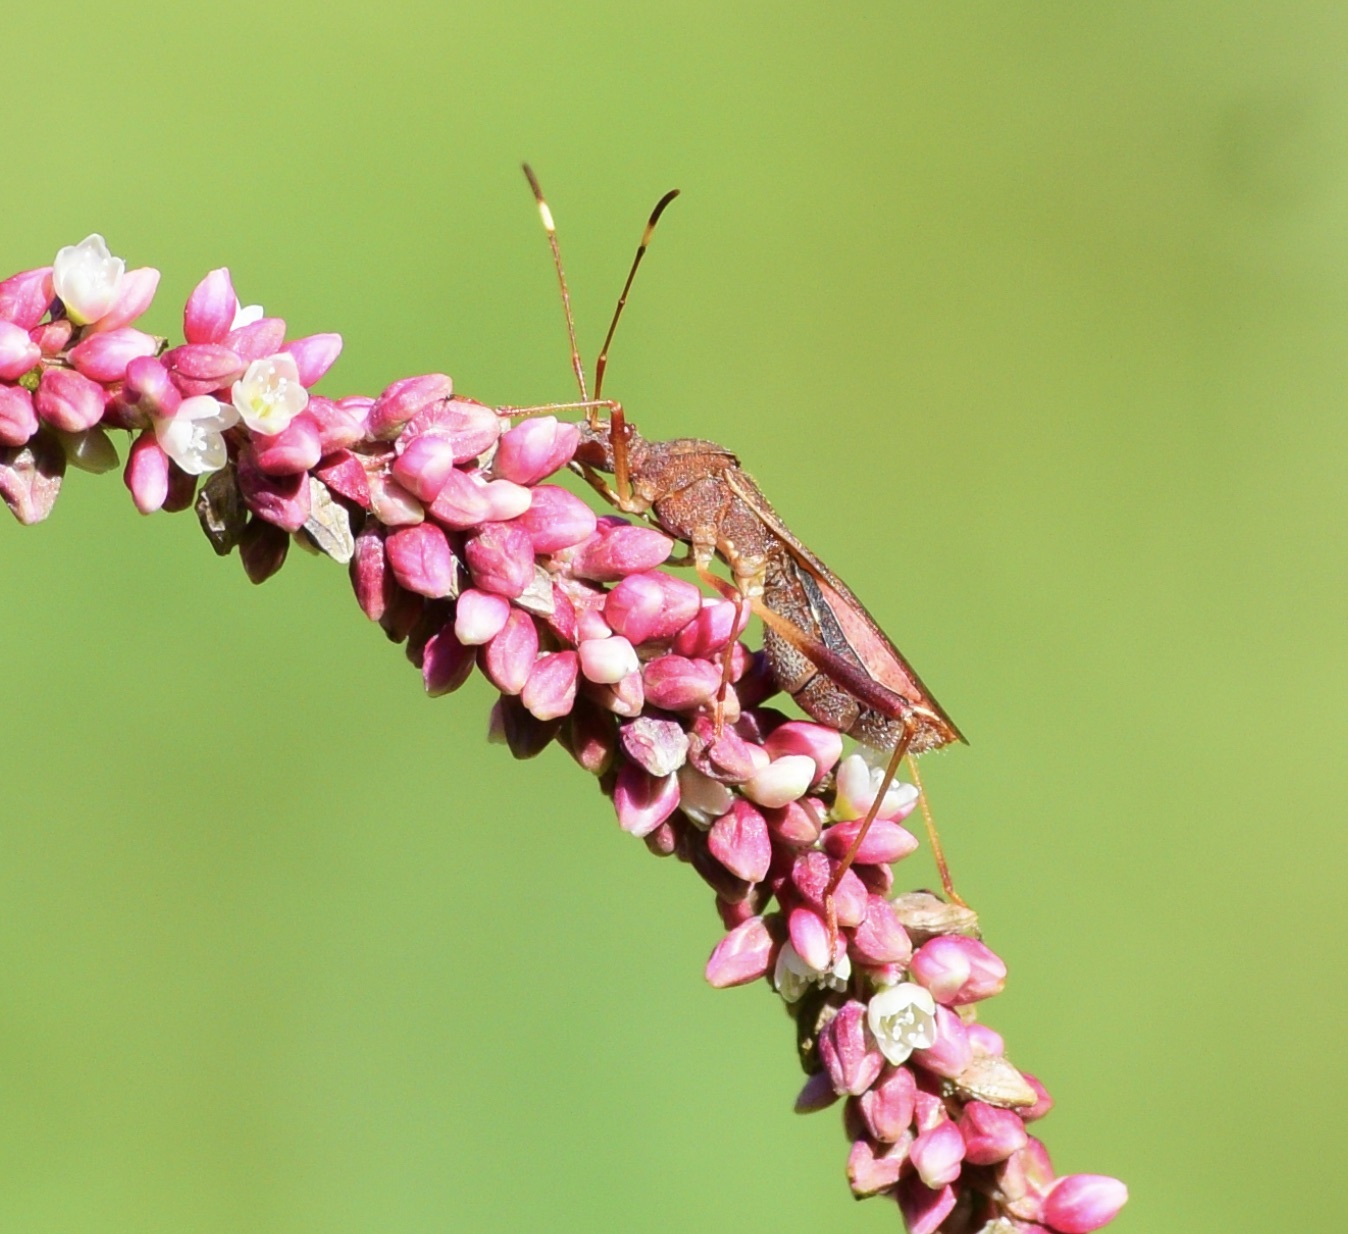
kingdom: Animalia
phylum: Arthropoda
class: Insecta
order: Hemiptera
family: Alydidae
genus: Megalotomus
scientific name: Megalotomus quinquespinosus
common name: Lupine bug
